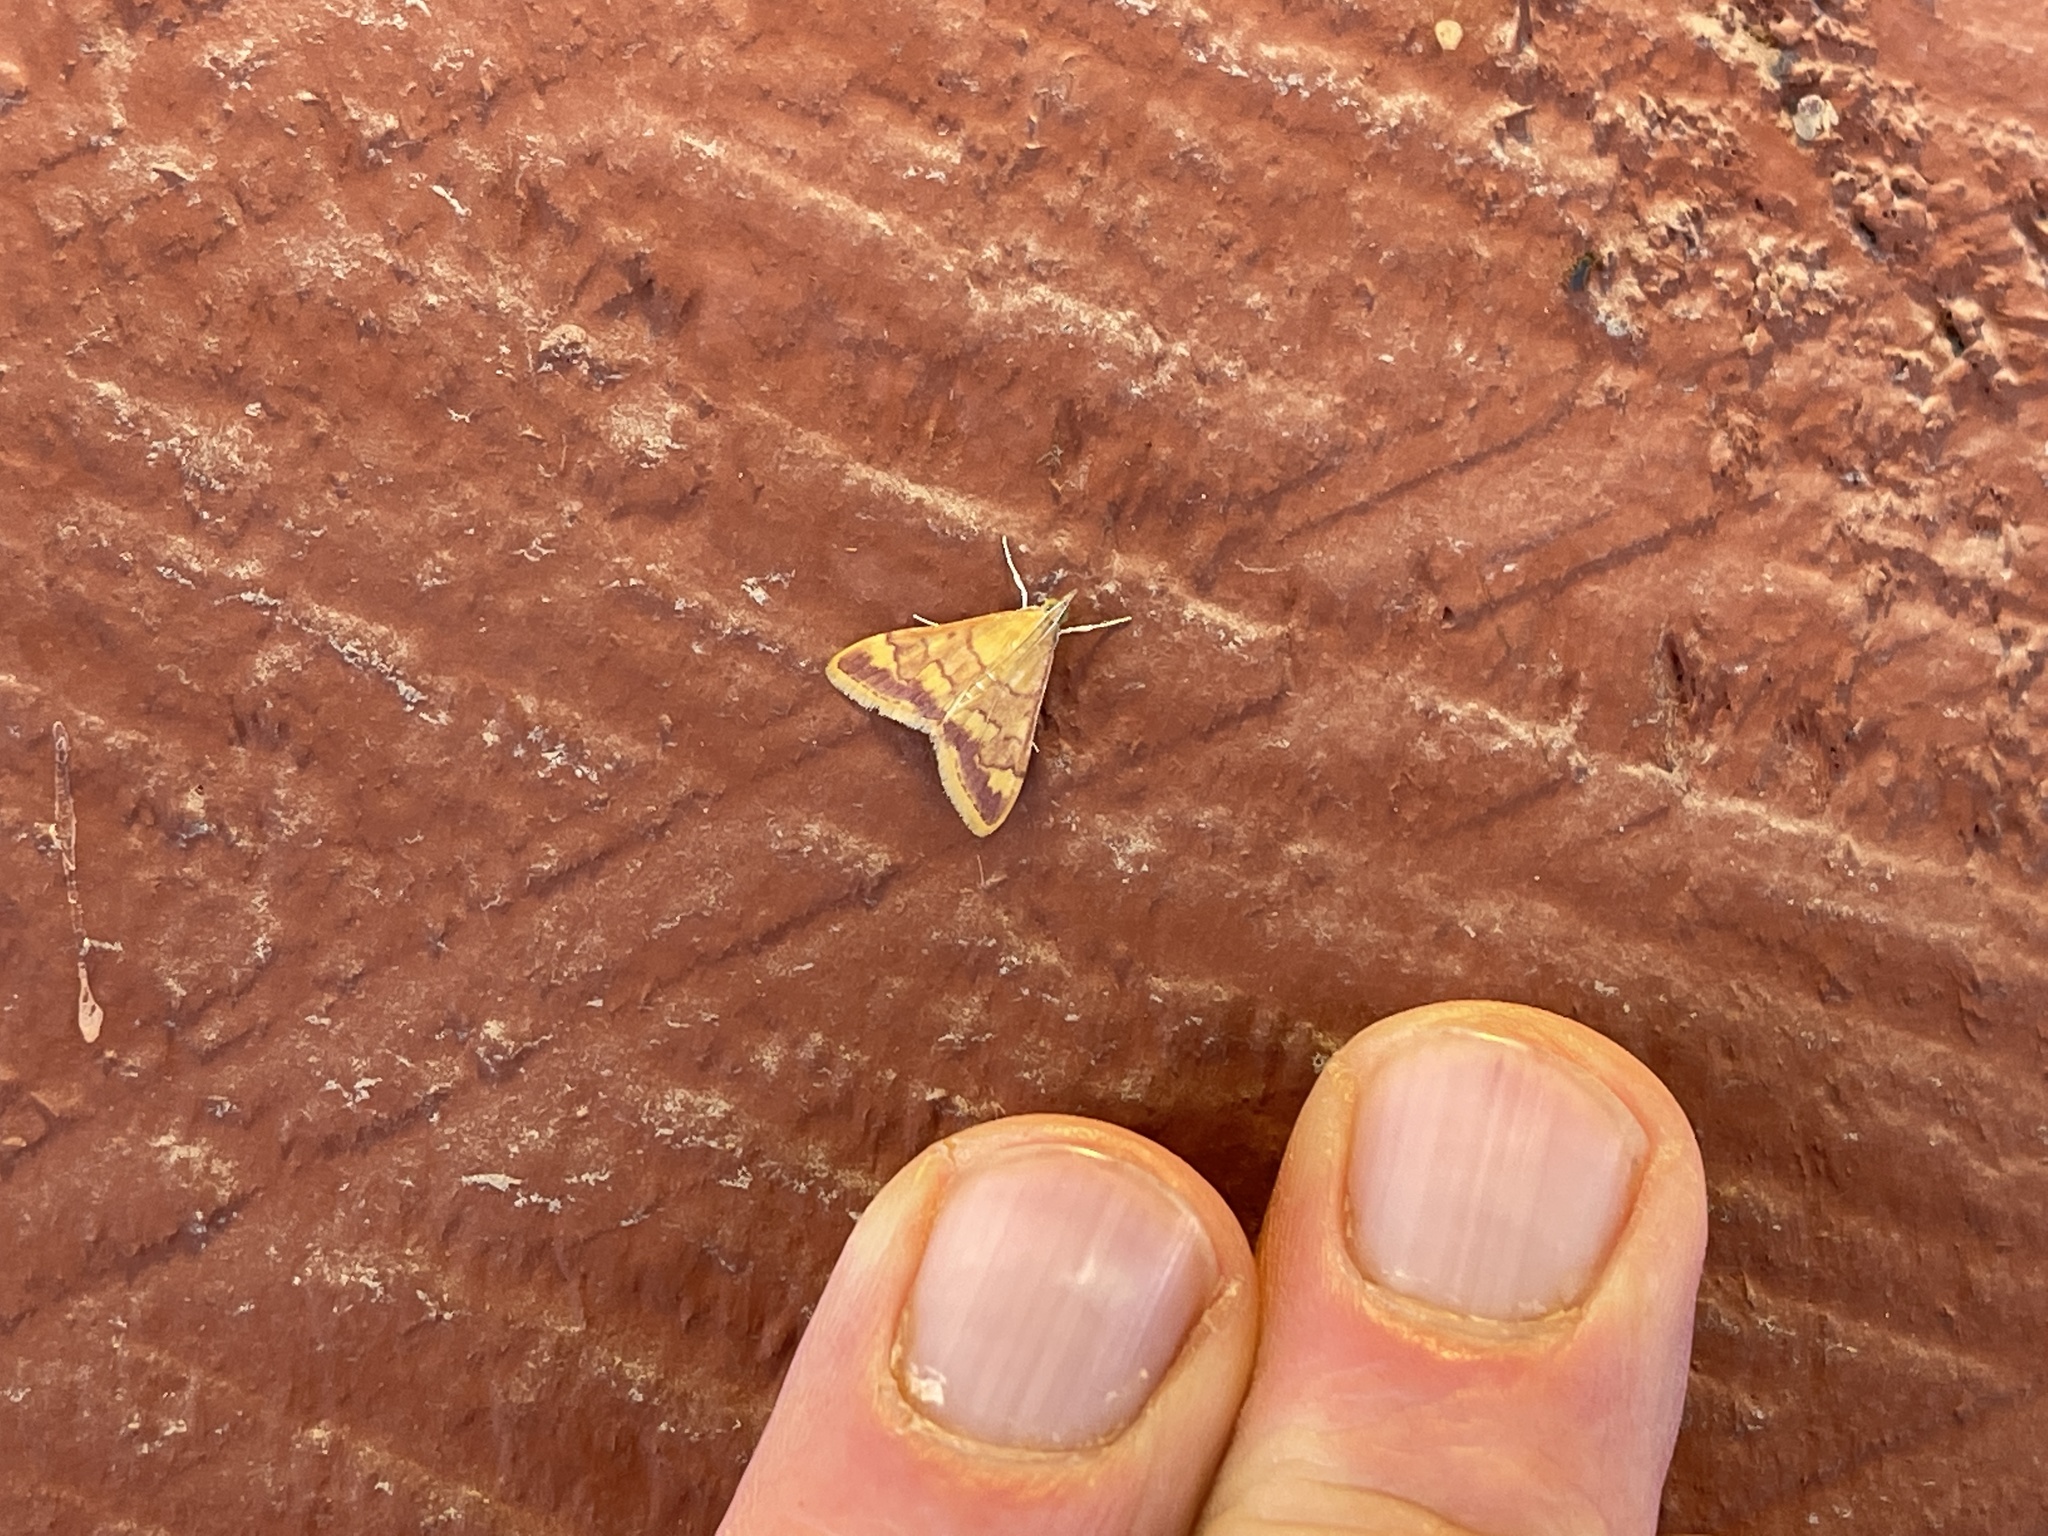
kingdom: Animalia
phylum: Arthropoda
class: Insecta
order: Lepidoptera
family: Crambidae
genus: Pyrausta
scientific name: Pyrausta pseudonythesalis
